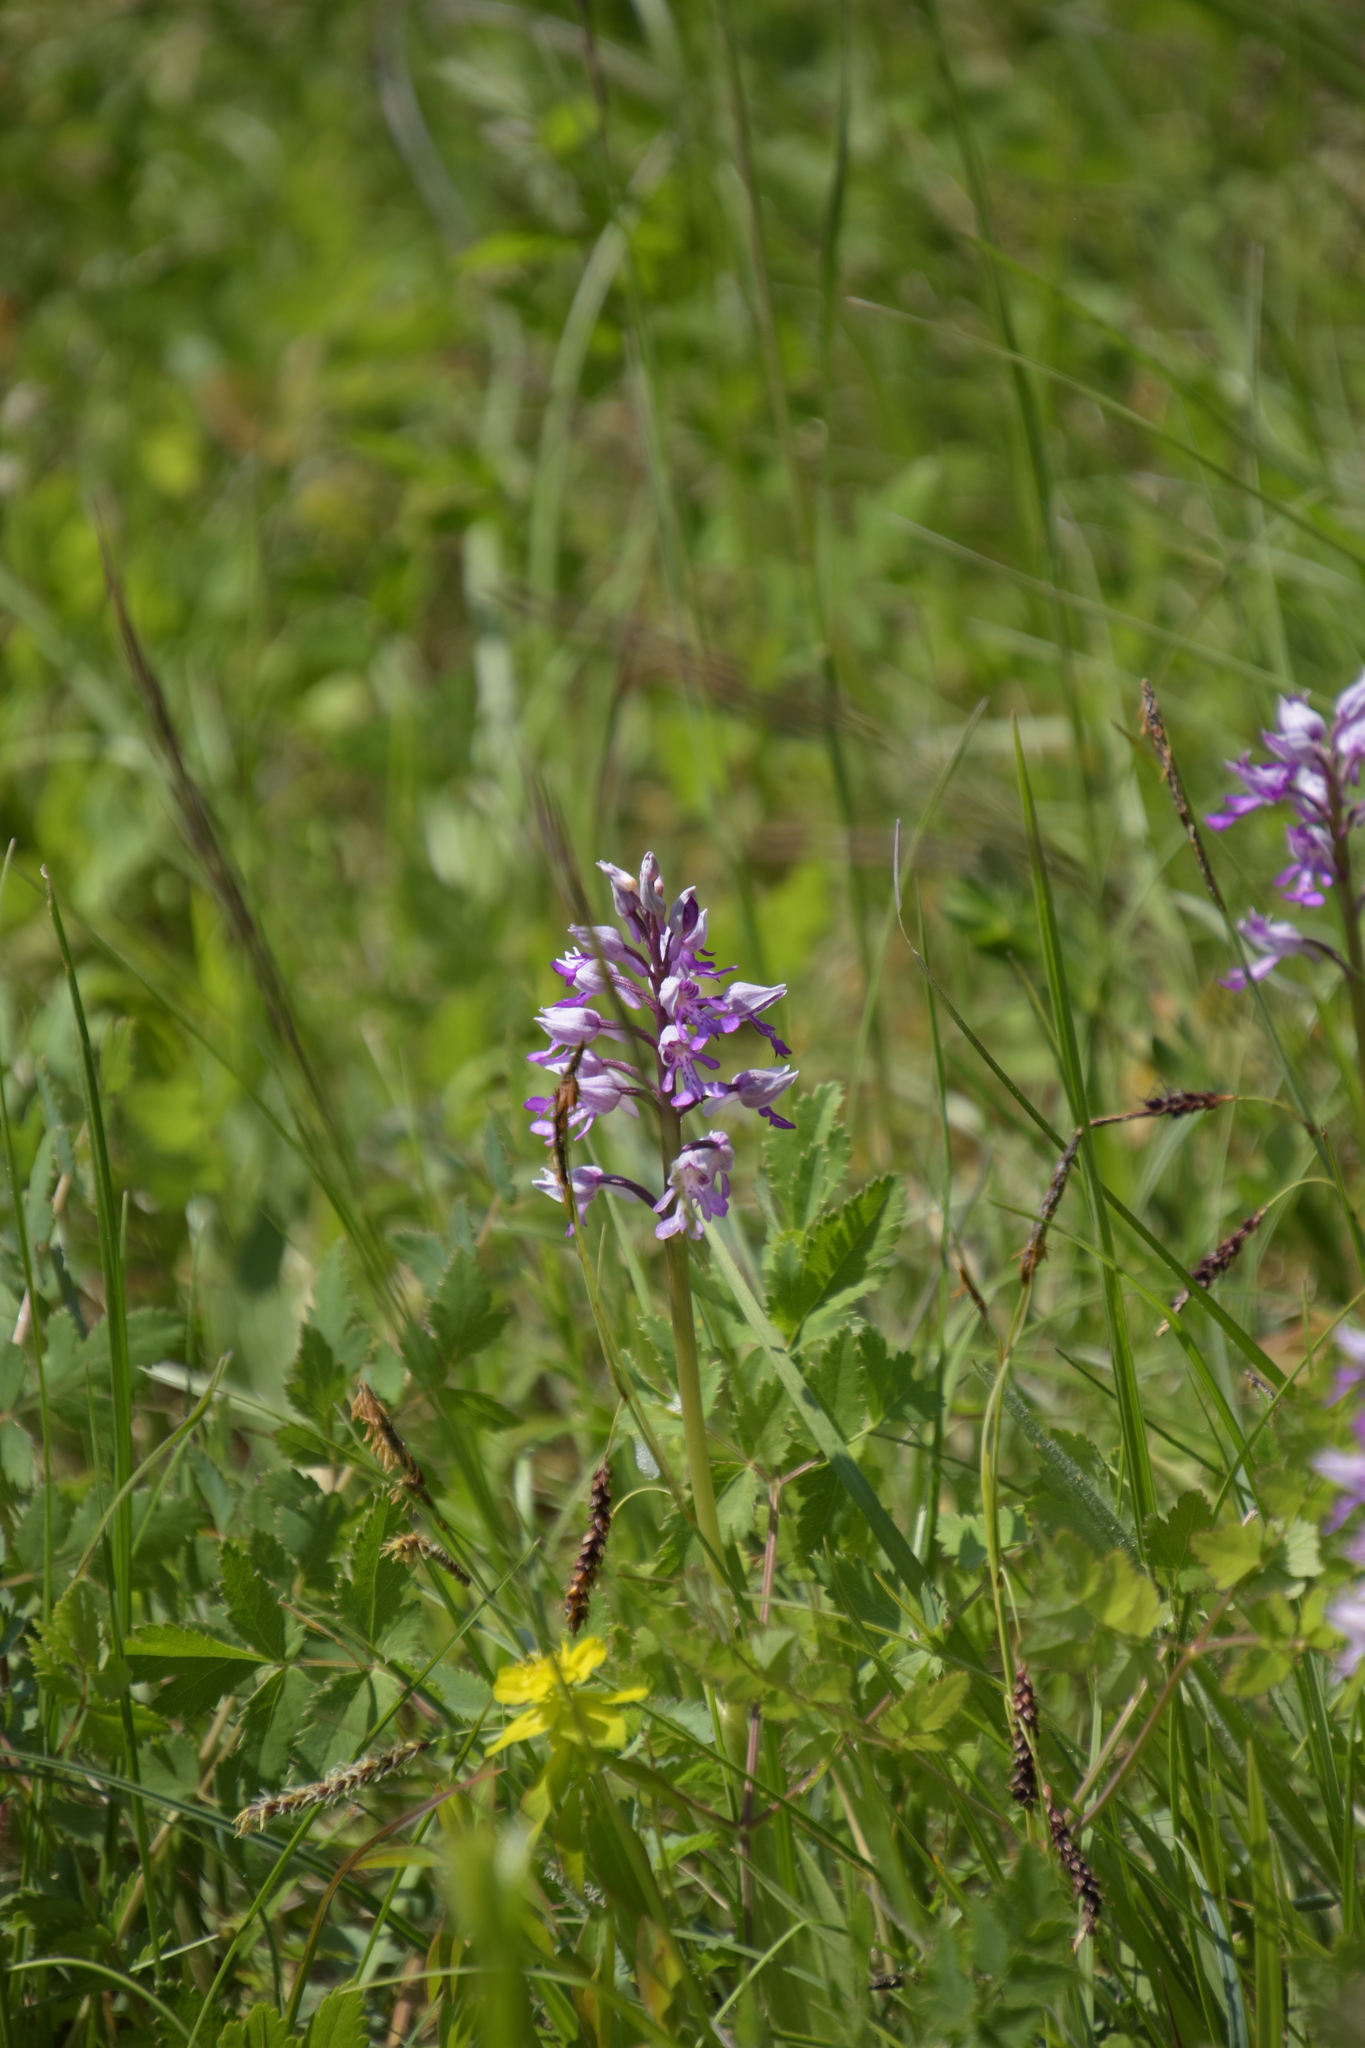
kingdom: Plantae
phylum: Tracheophyta
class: Liliopsida
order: Asparagales
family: Orchidaceae
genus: Orchis
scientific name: Orchis militaris
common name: Military orchid
